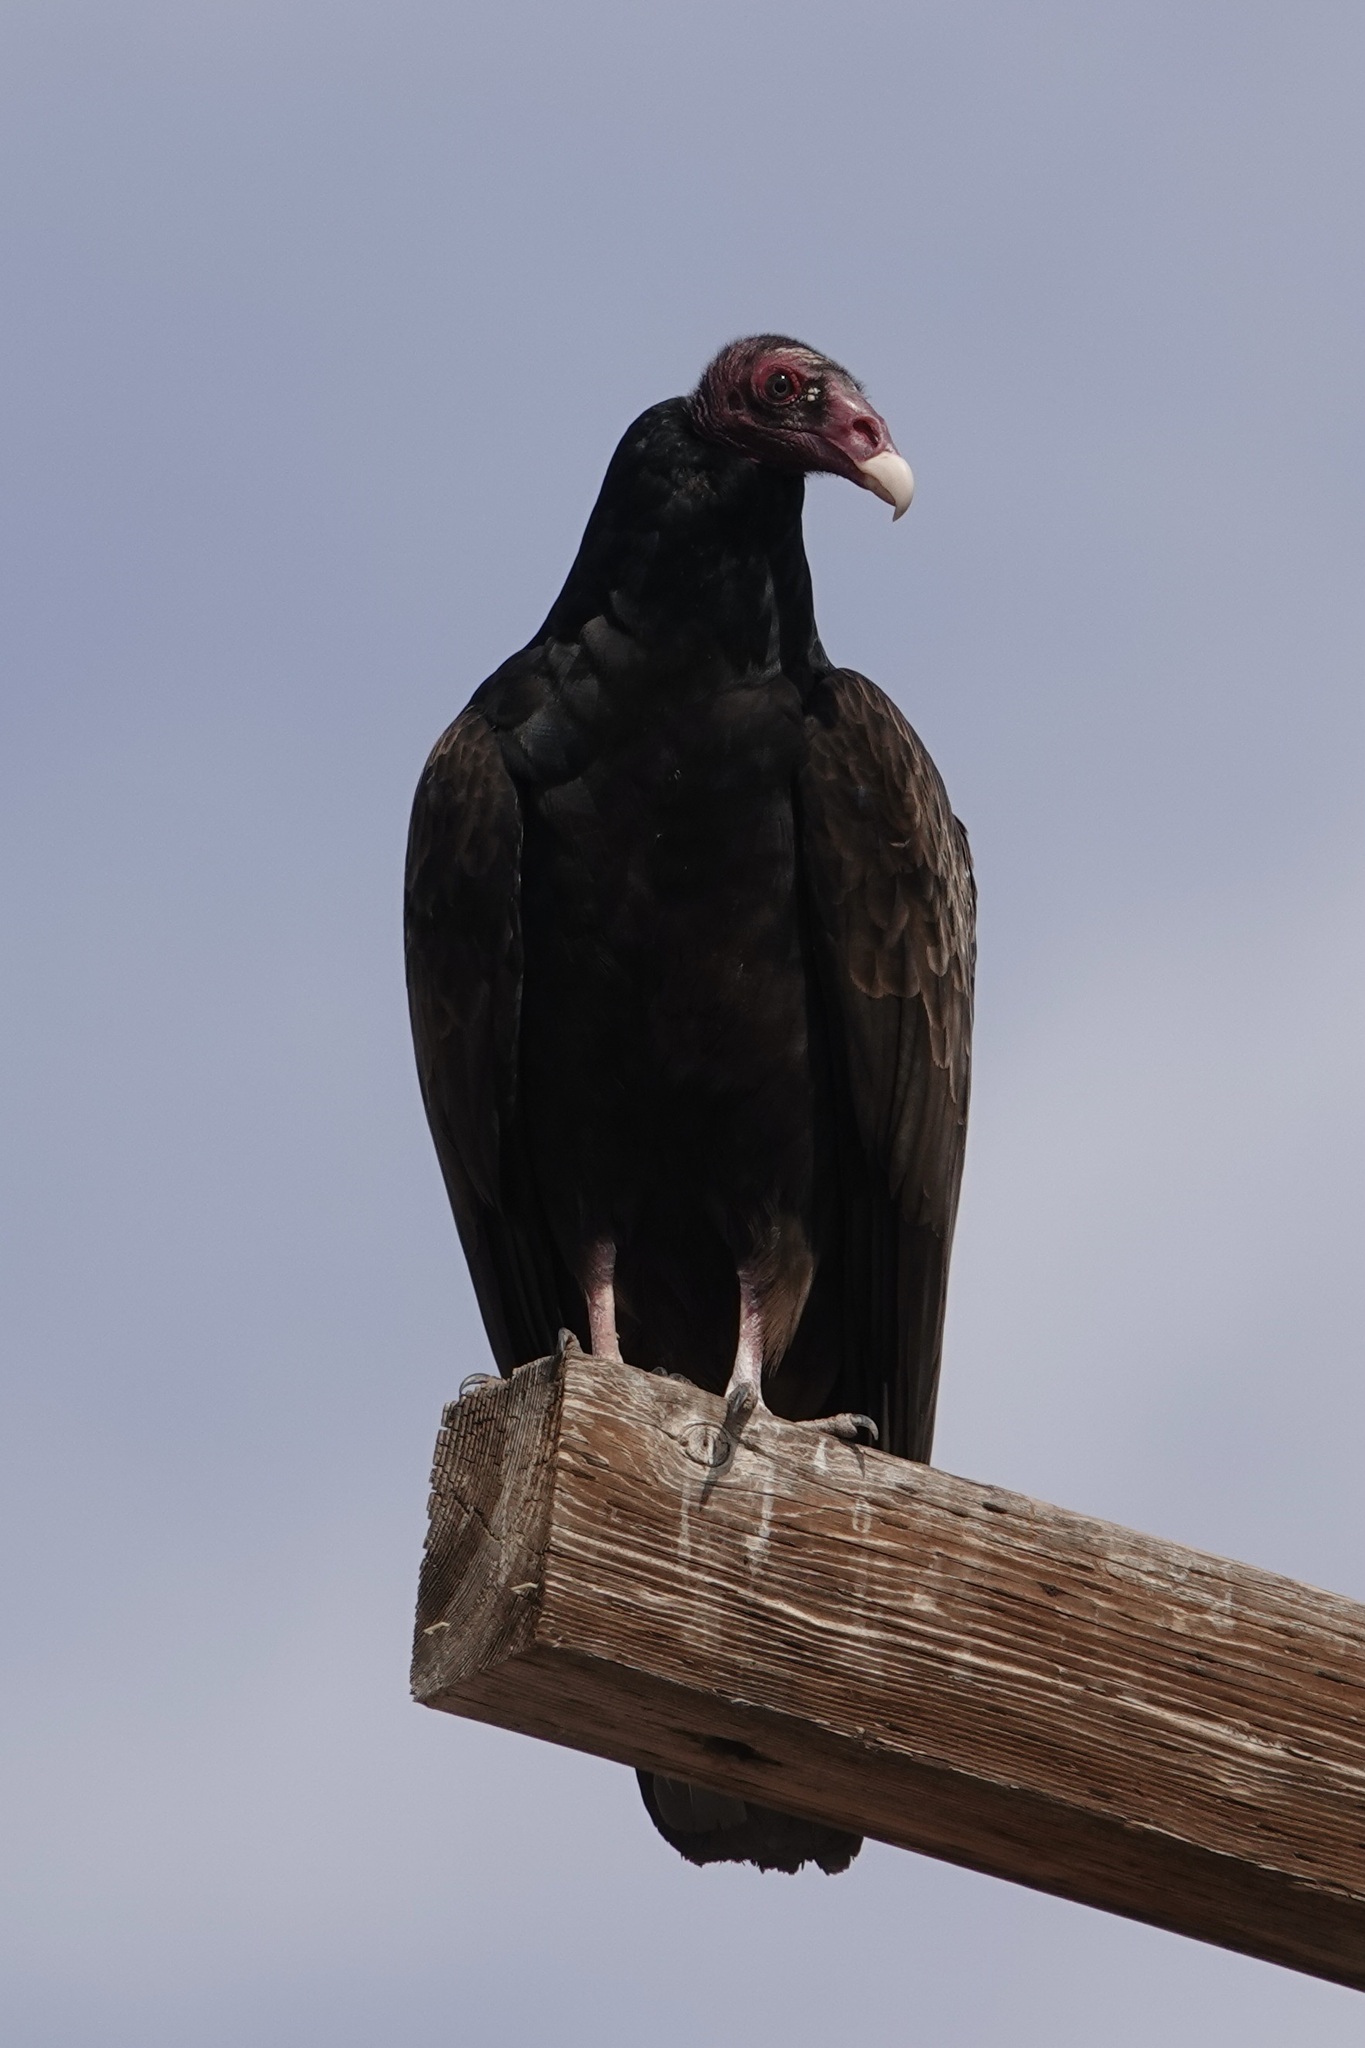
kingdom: Animalia
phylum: Chordata
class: Aves
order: Accipitriformes
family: Cathartidae
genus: Cathartes
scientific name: Cathartes aura
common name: Turkey vulture
